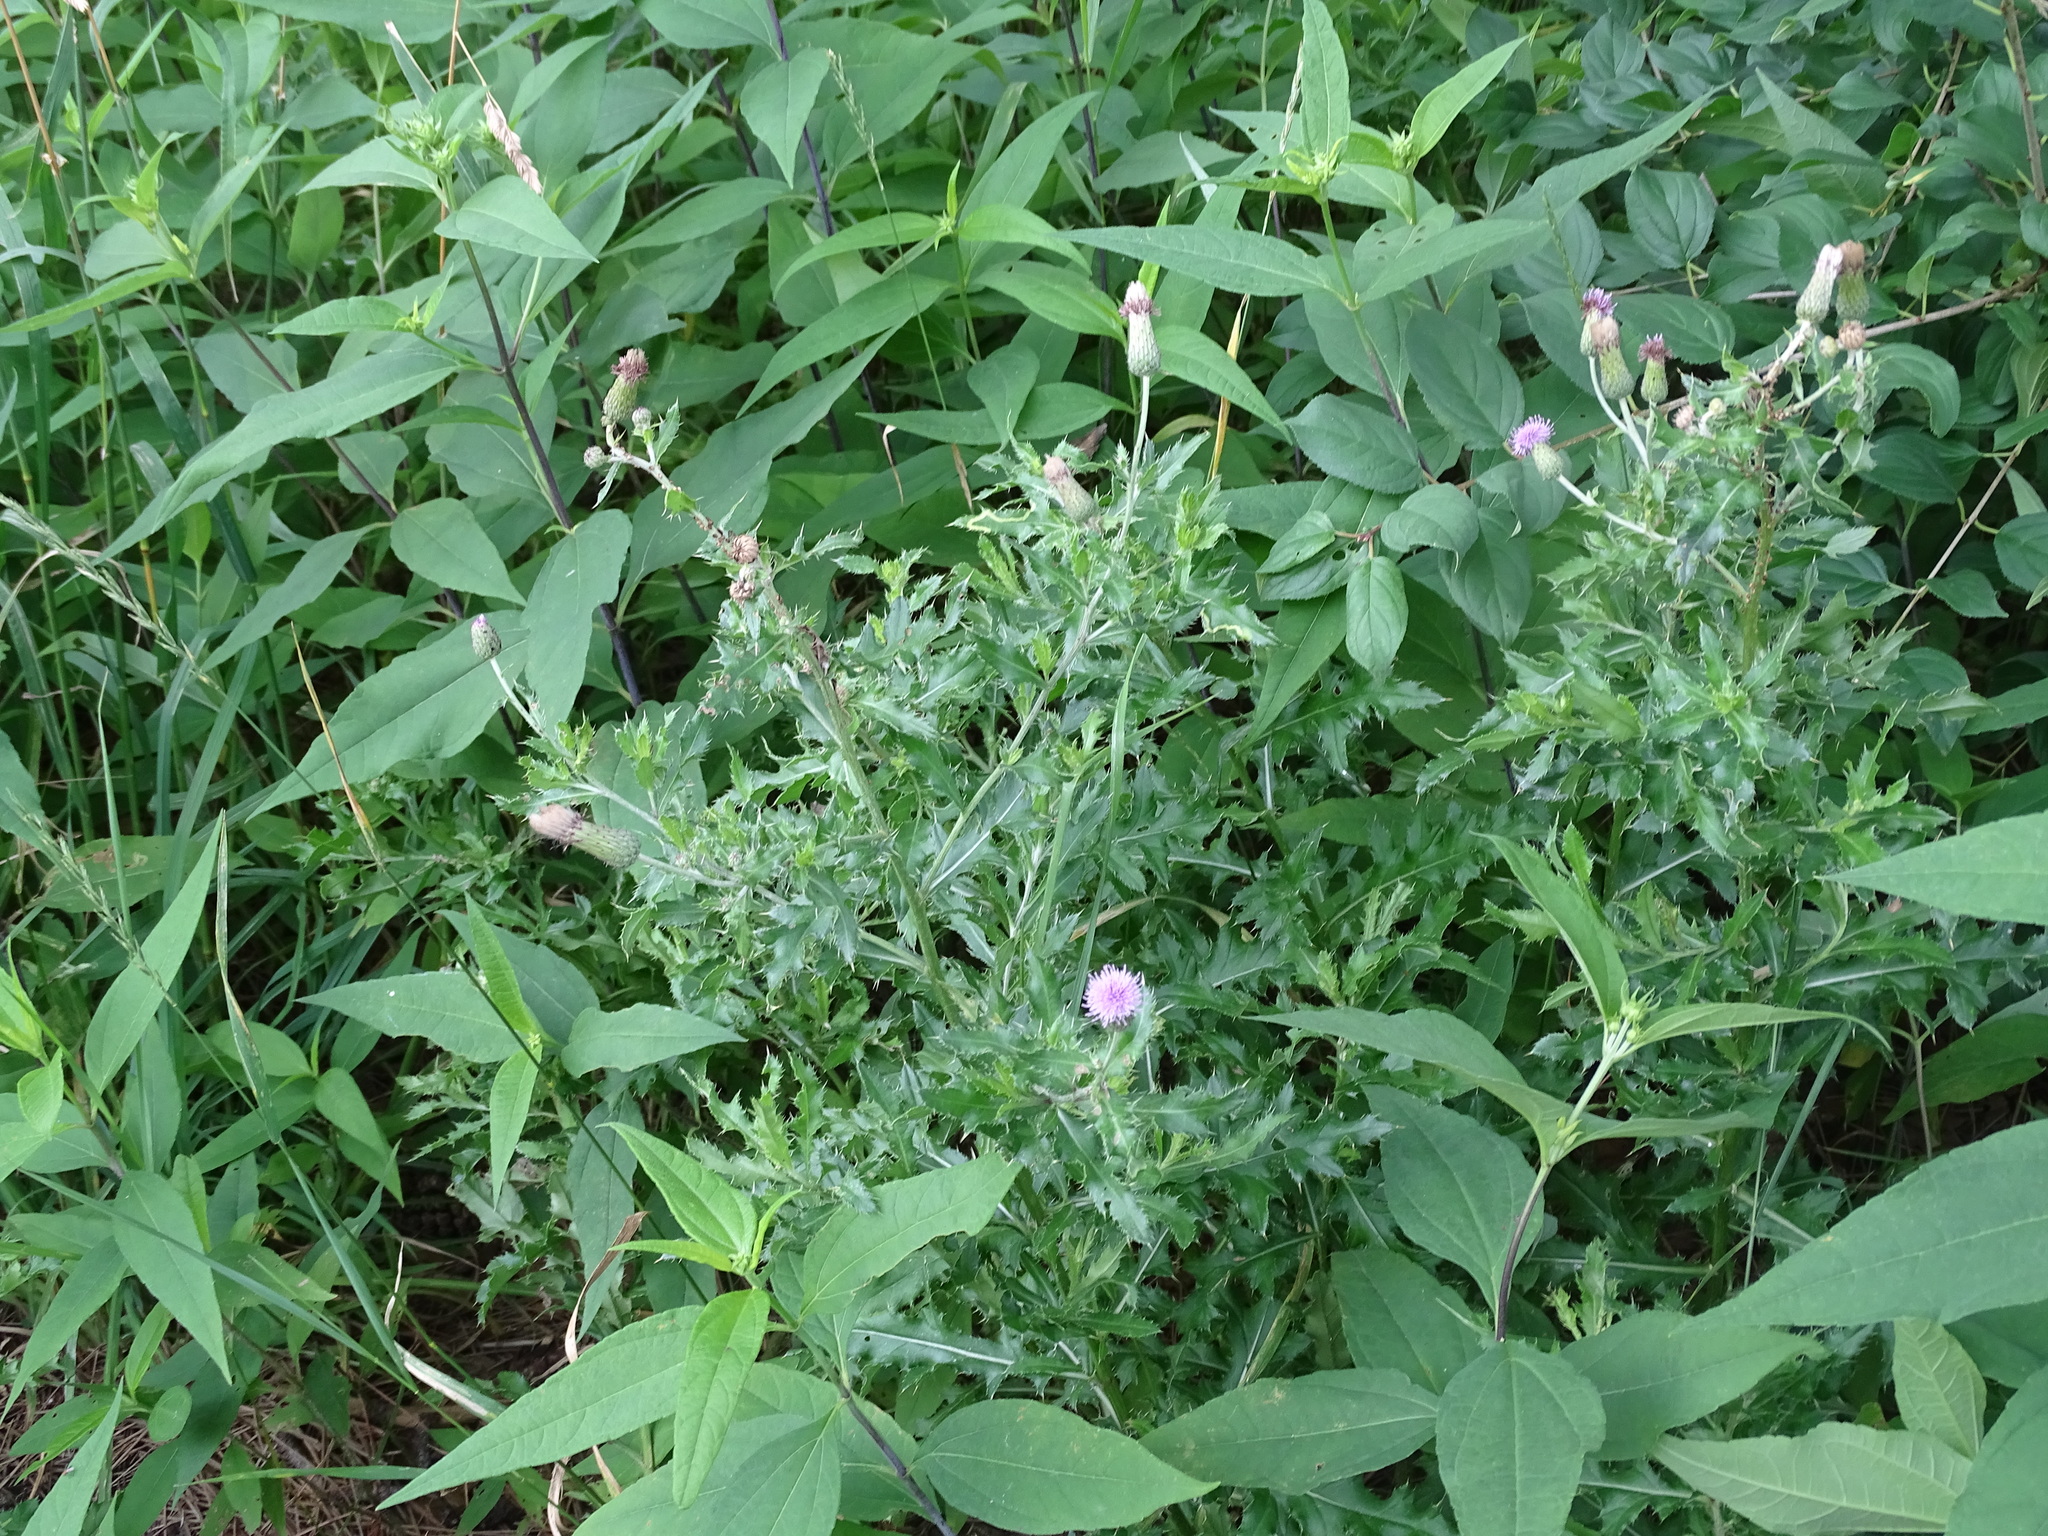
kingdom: Plantae
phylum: Tracheophyta
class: Magnoliopsida
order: Asterales
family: Asteraceae
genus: Cirsium
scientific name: Cirsium arvense
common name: Creeping thistle
